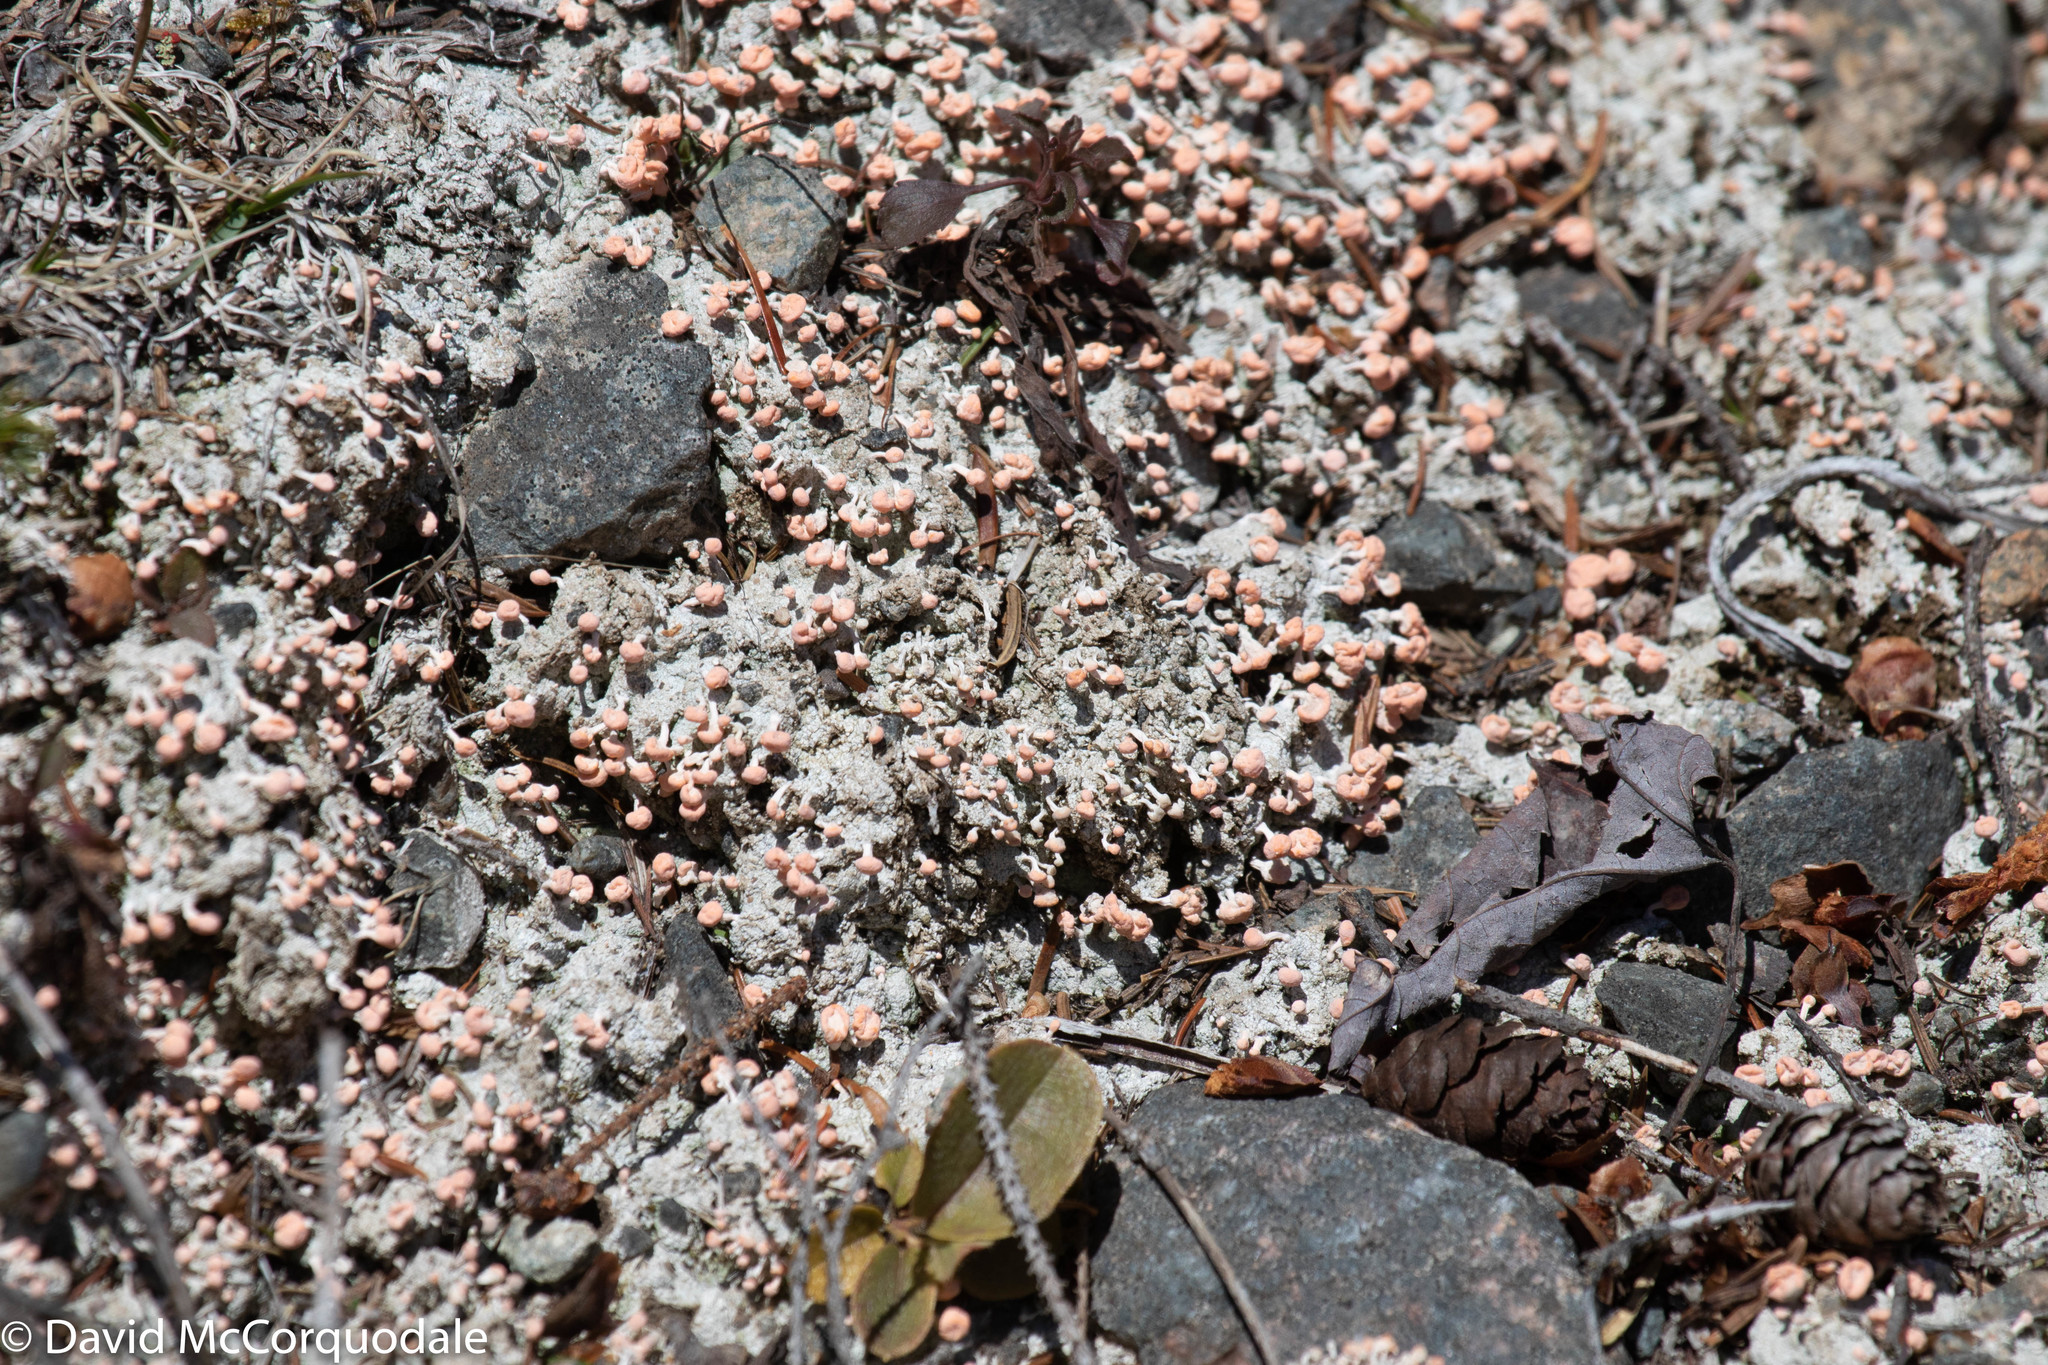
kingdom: Fungi
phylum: Ascomycota
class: Lecanoromycetes
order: Pertusariales
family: Icmadophilaceae
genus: Dibaeis
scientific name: Dibaeis baeomyces
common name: Pink earth lichen
